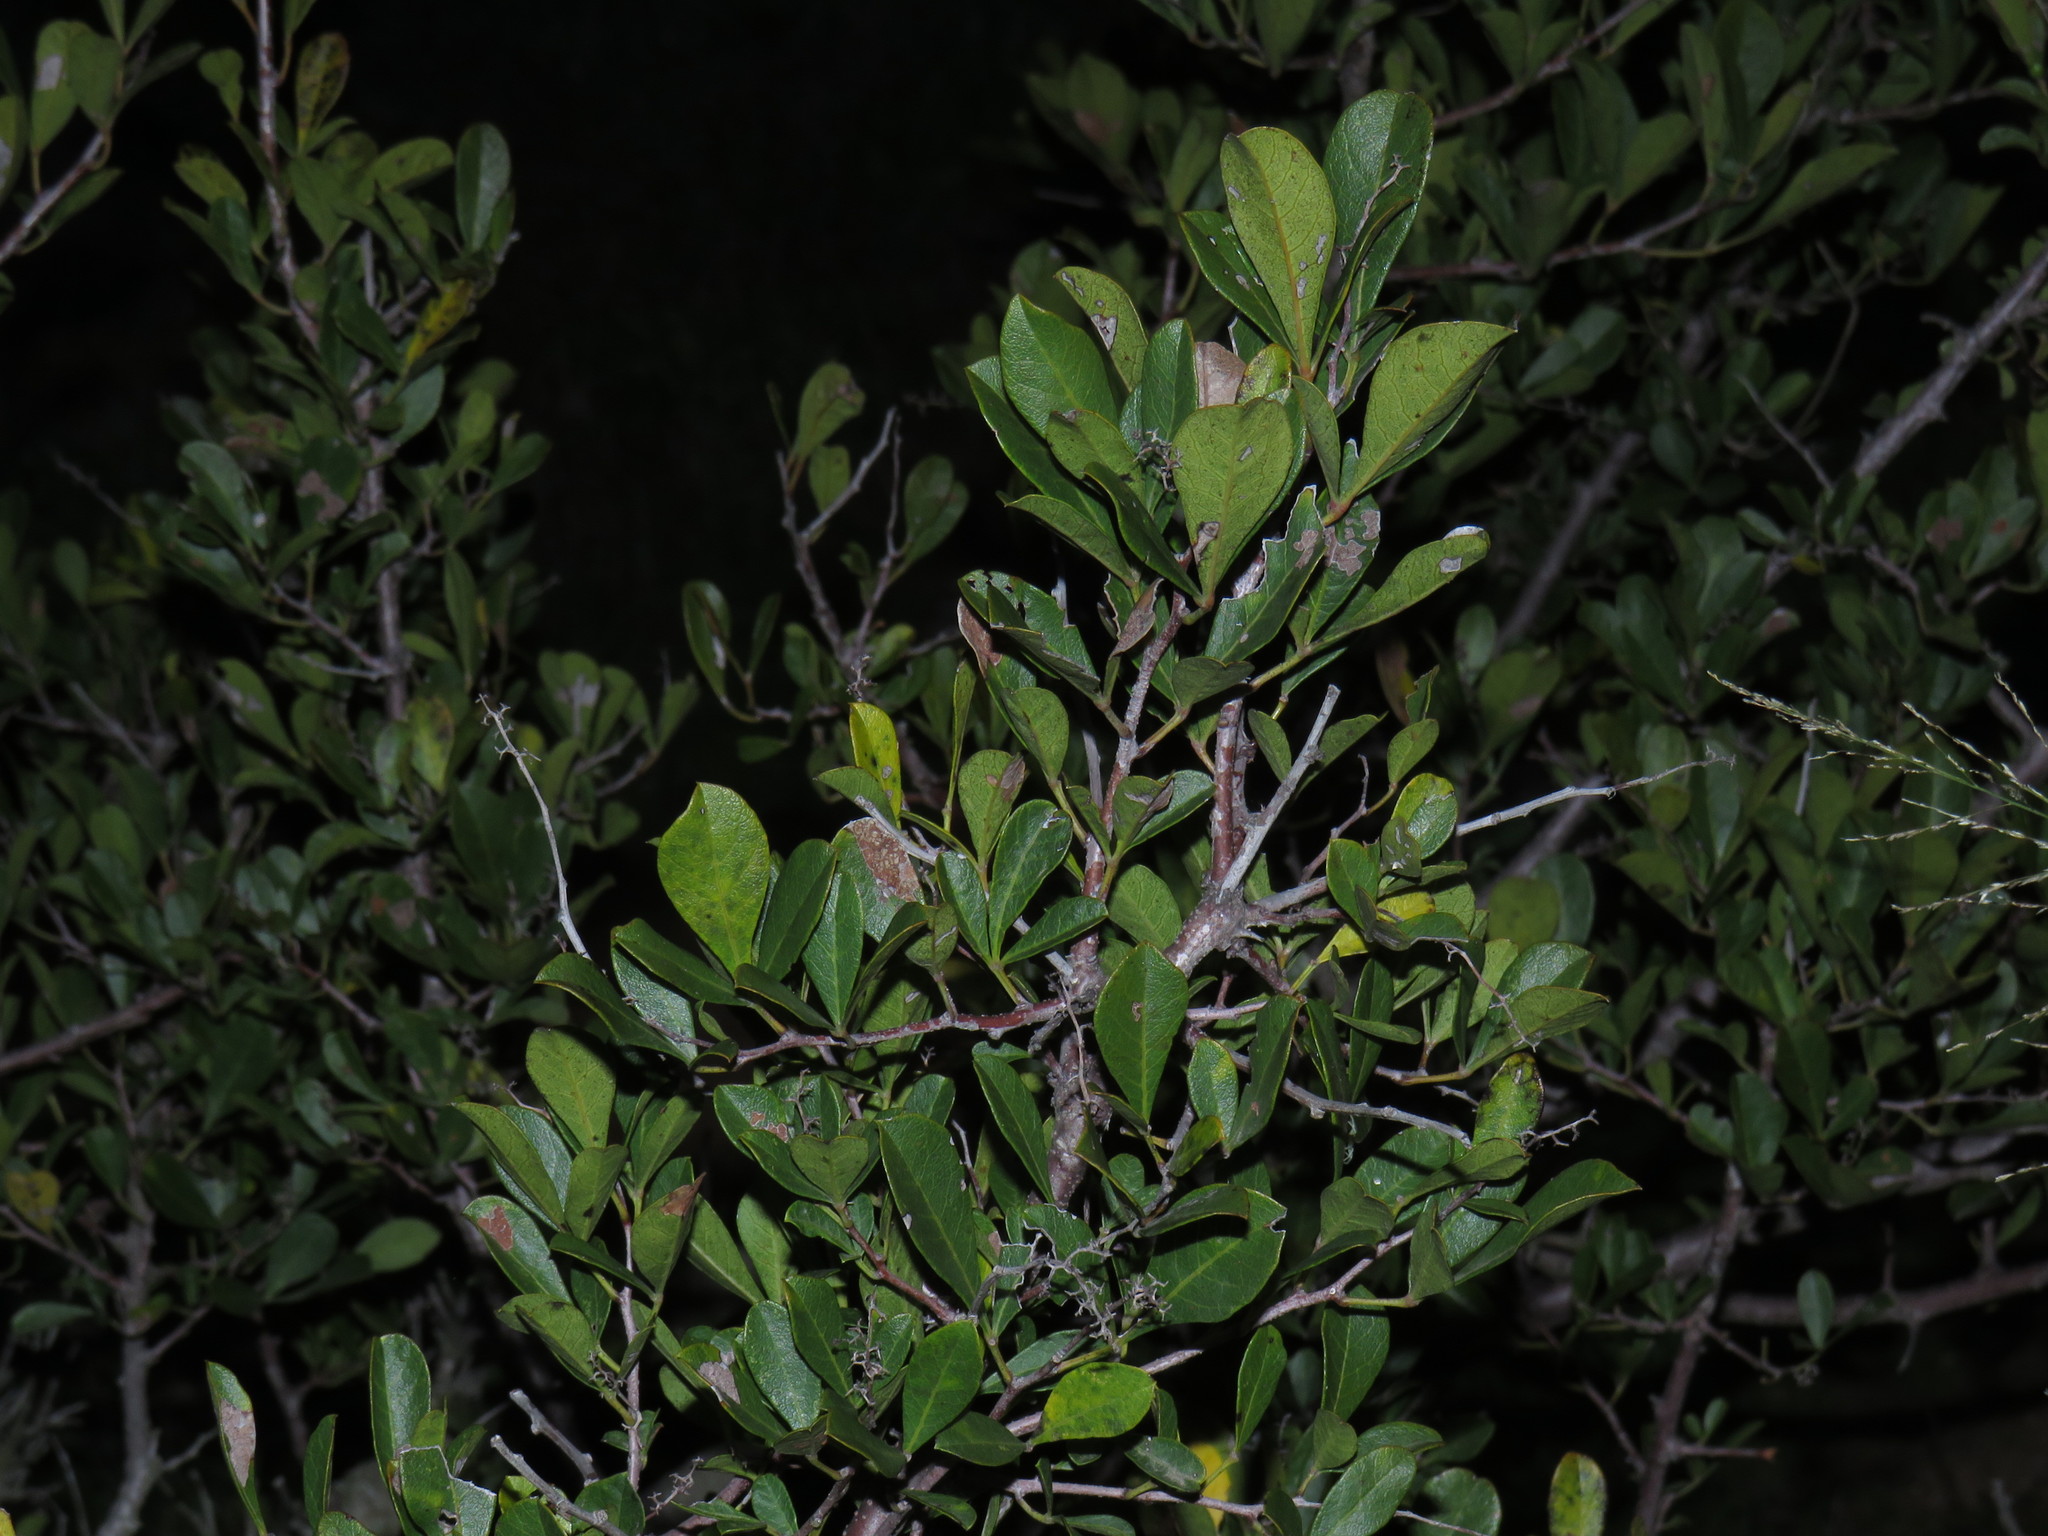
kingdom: Plantae
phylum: Tracheophyta
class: Magnoliopsida
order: Sapindales
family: Anacardiaceae
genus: Searsia
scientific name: Searsia laevigata
